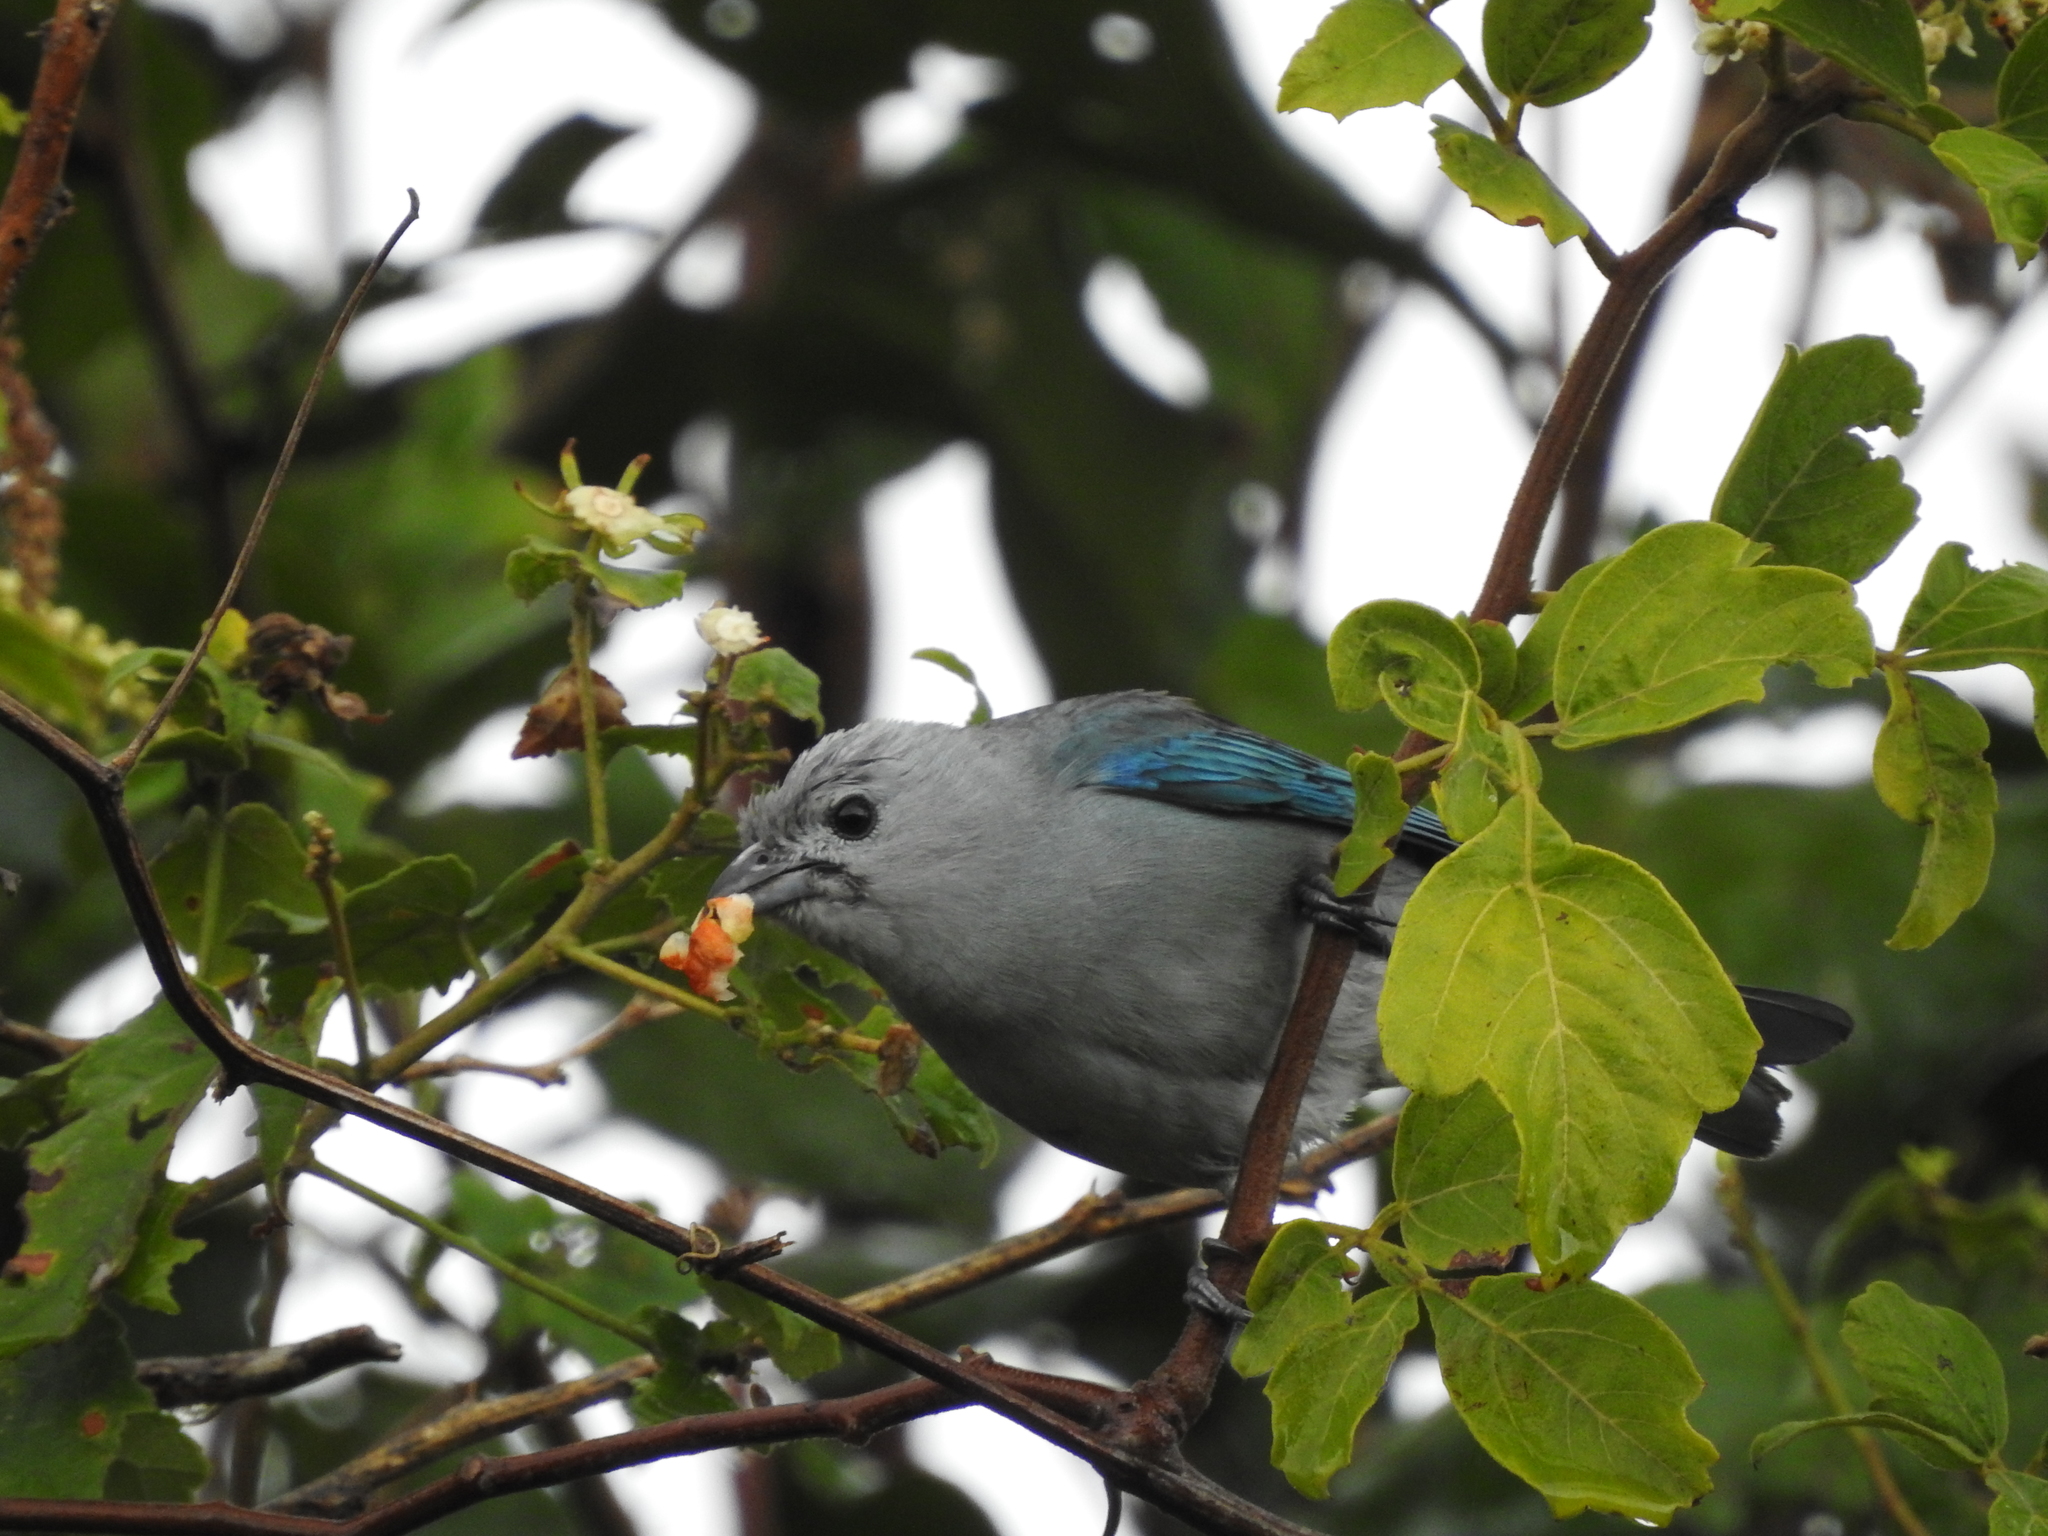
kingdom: Animalia
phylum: Chordata
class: Aves
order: Passeriformes
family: Thraupidae
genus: Thraupis
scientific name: Thraupis episcopus
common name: Blue-grey tanager
